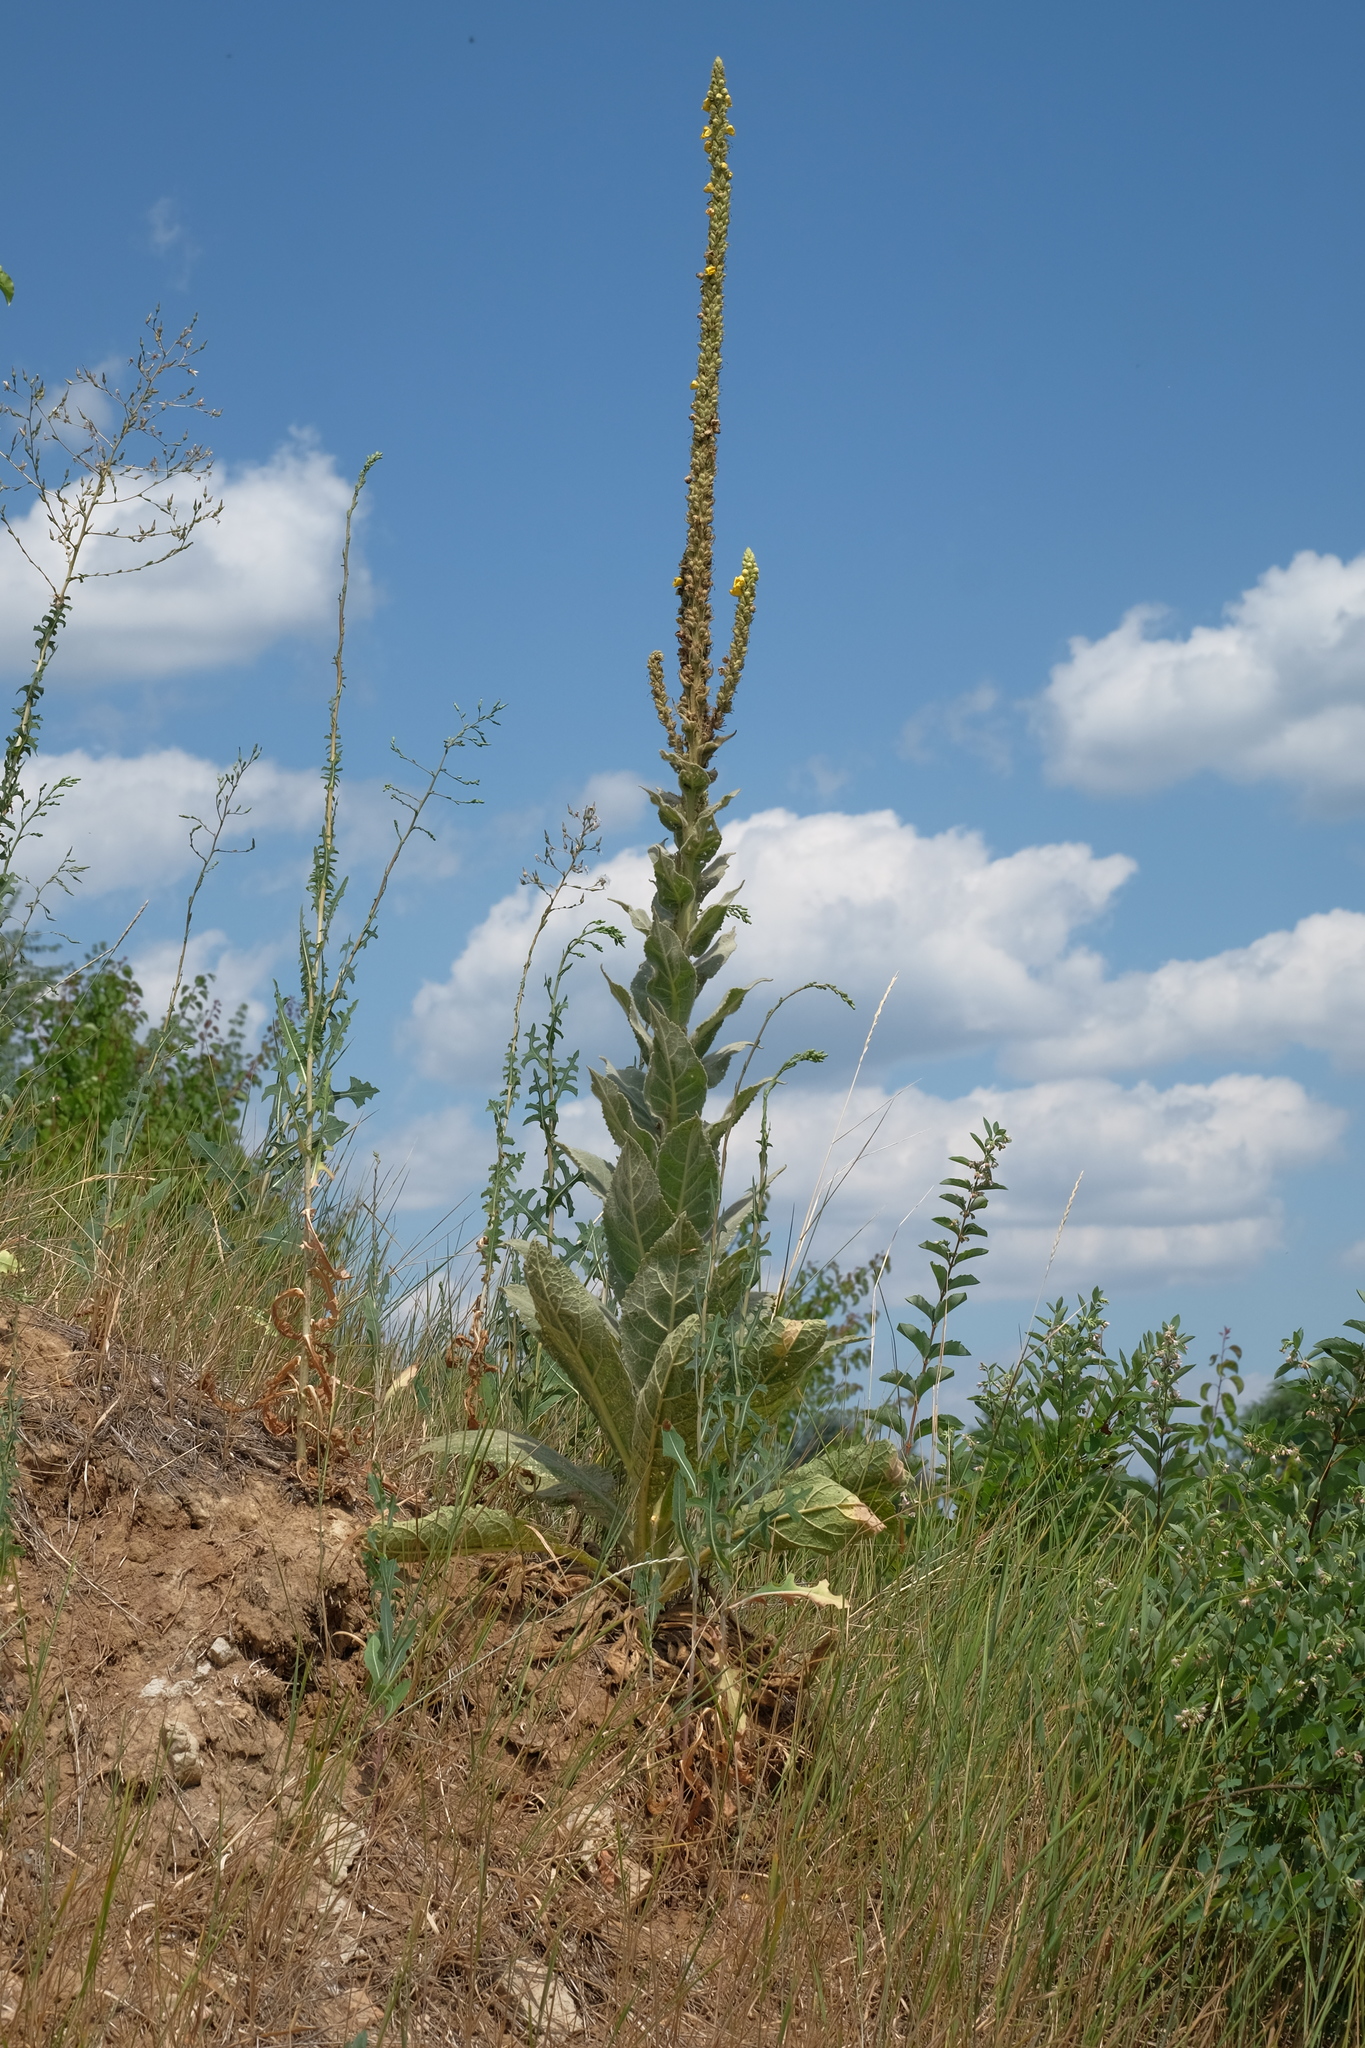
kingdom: Plantae
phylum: Tracheophyta
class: Magnoliopsida
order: Lamiales
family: Scrophulariaceae
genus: Verbascum
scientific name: Verbascum densiflorum
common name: Dense-flowered mullein
